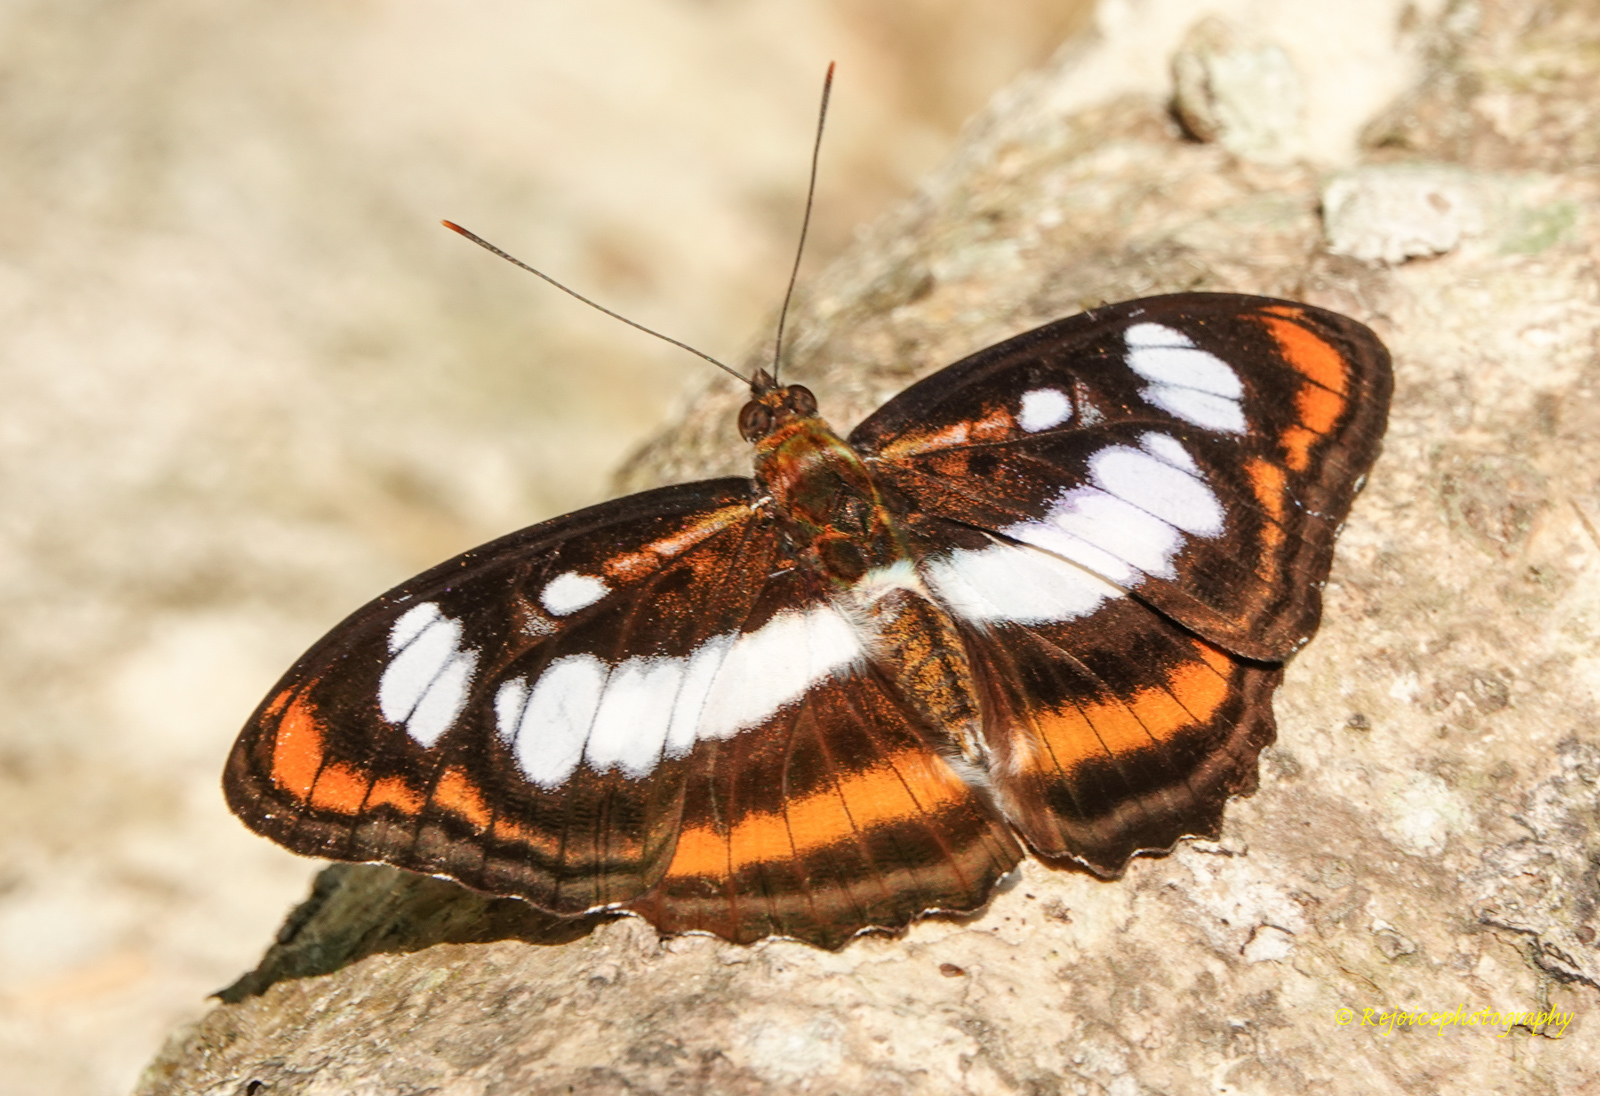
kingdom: Animalia
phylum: Arthropoda
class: Insecta
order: Lepidoptera
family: Nymphalidae
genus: Parathyma
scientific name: Parathyma nefte
